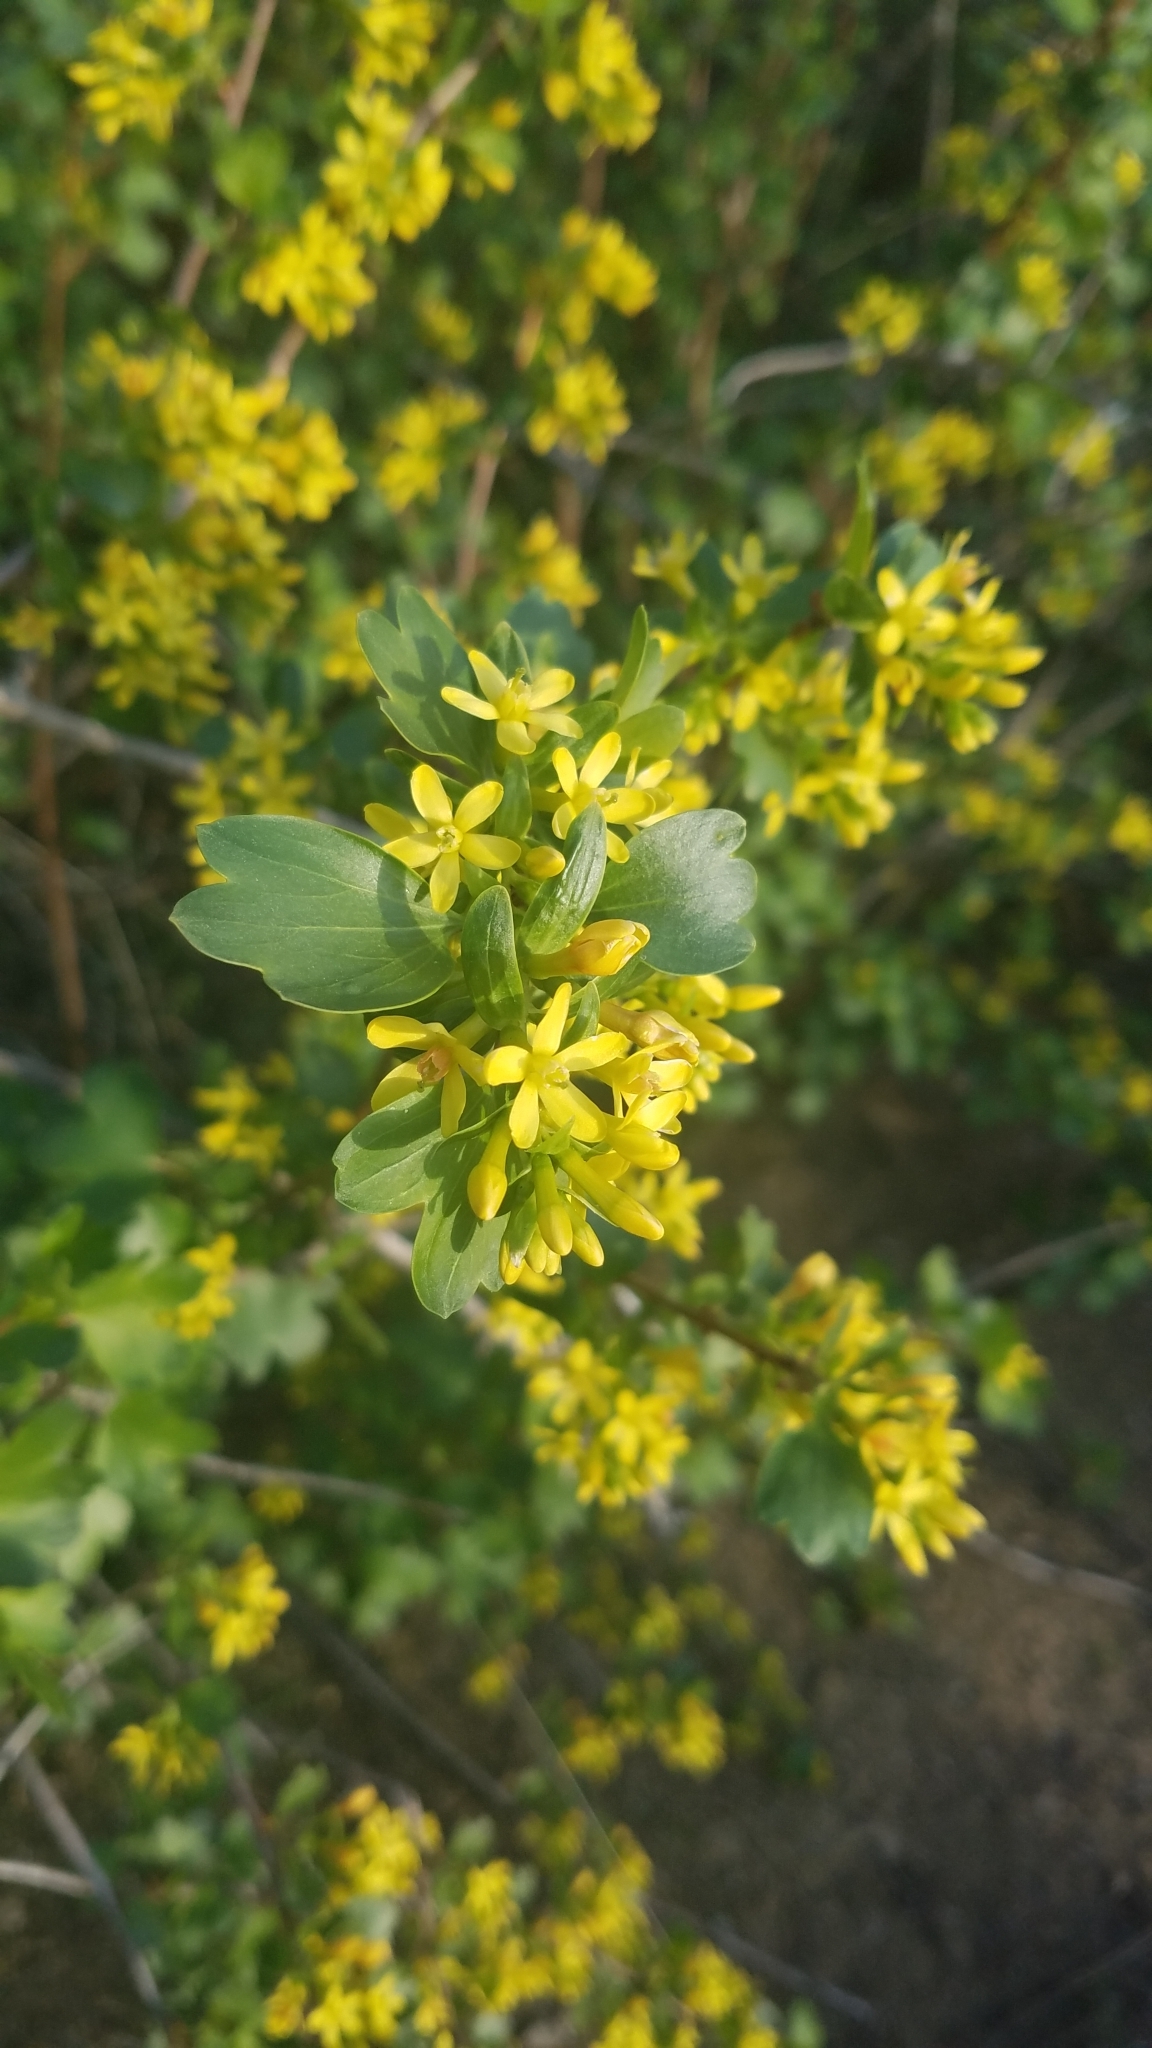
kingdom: Plantae
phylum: Tracheophyta
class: Magnoliopsida
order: Saxifragales
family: Grossulariaceae
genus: Ribes
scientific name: Ribes aureum
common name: Golden currant
